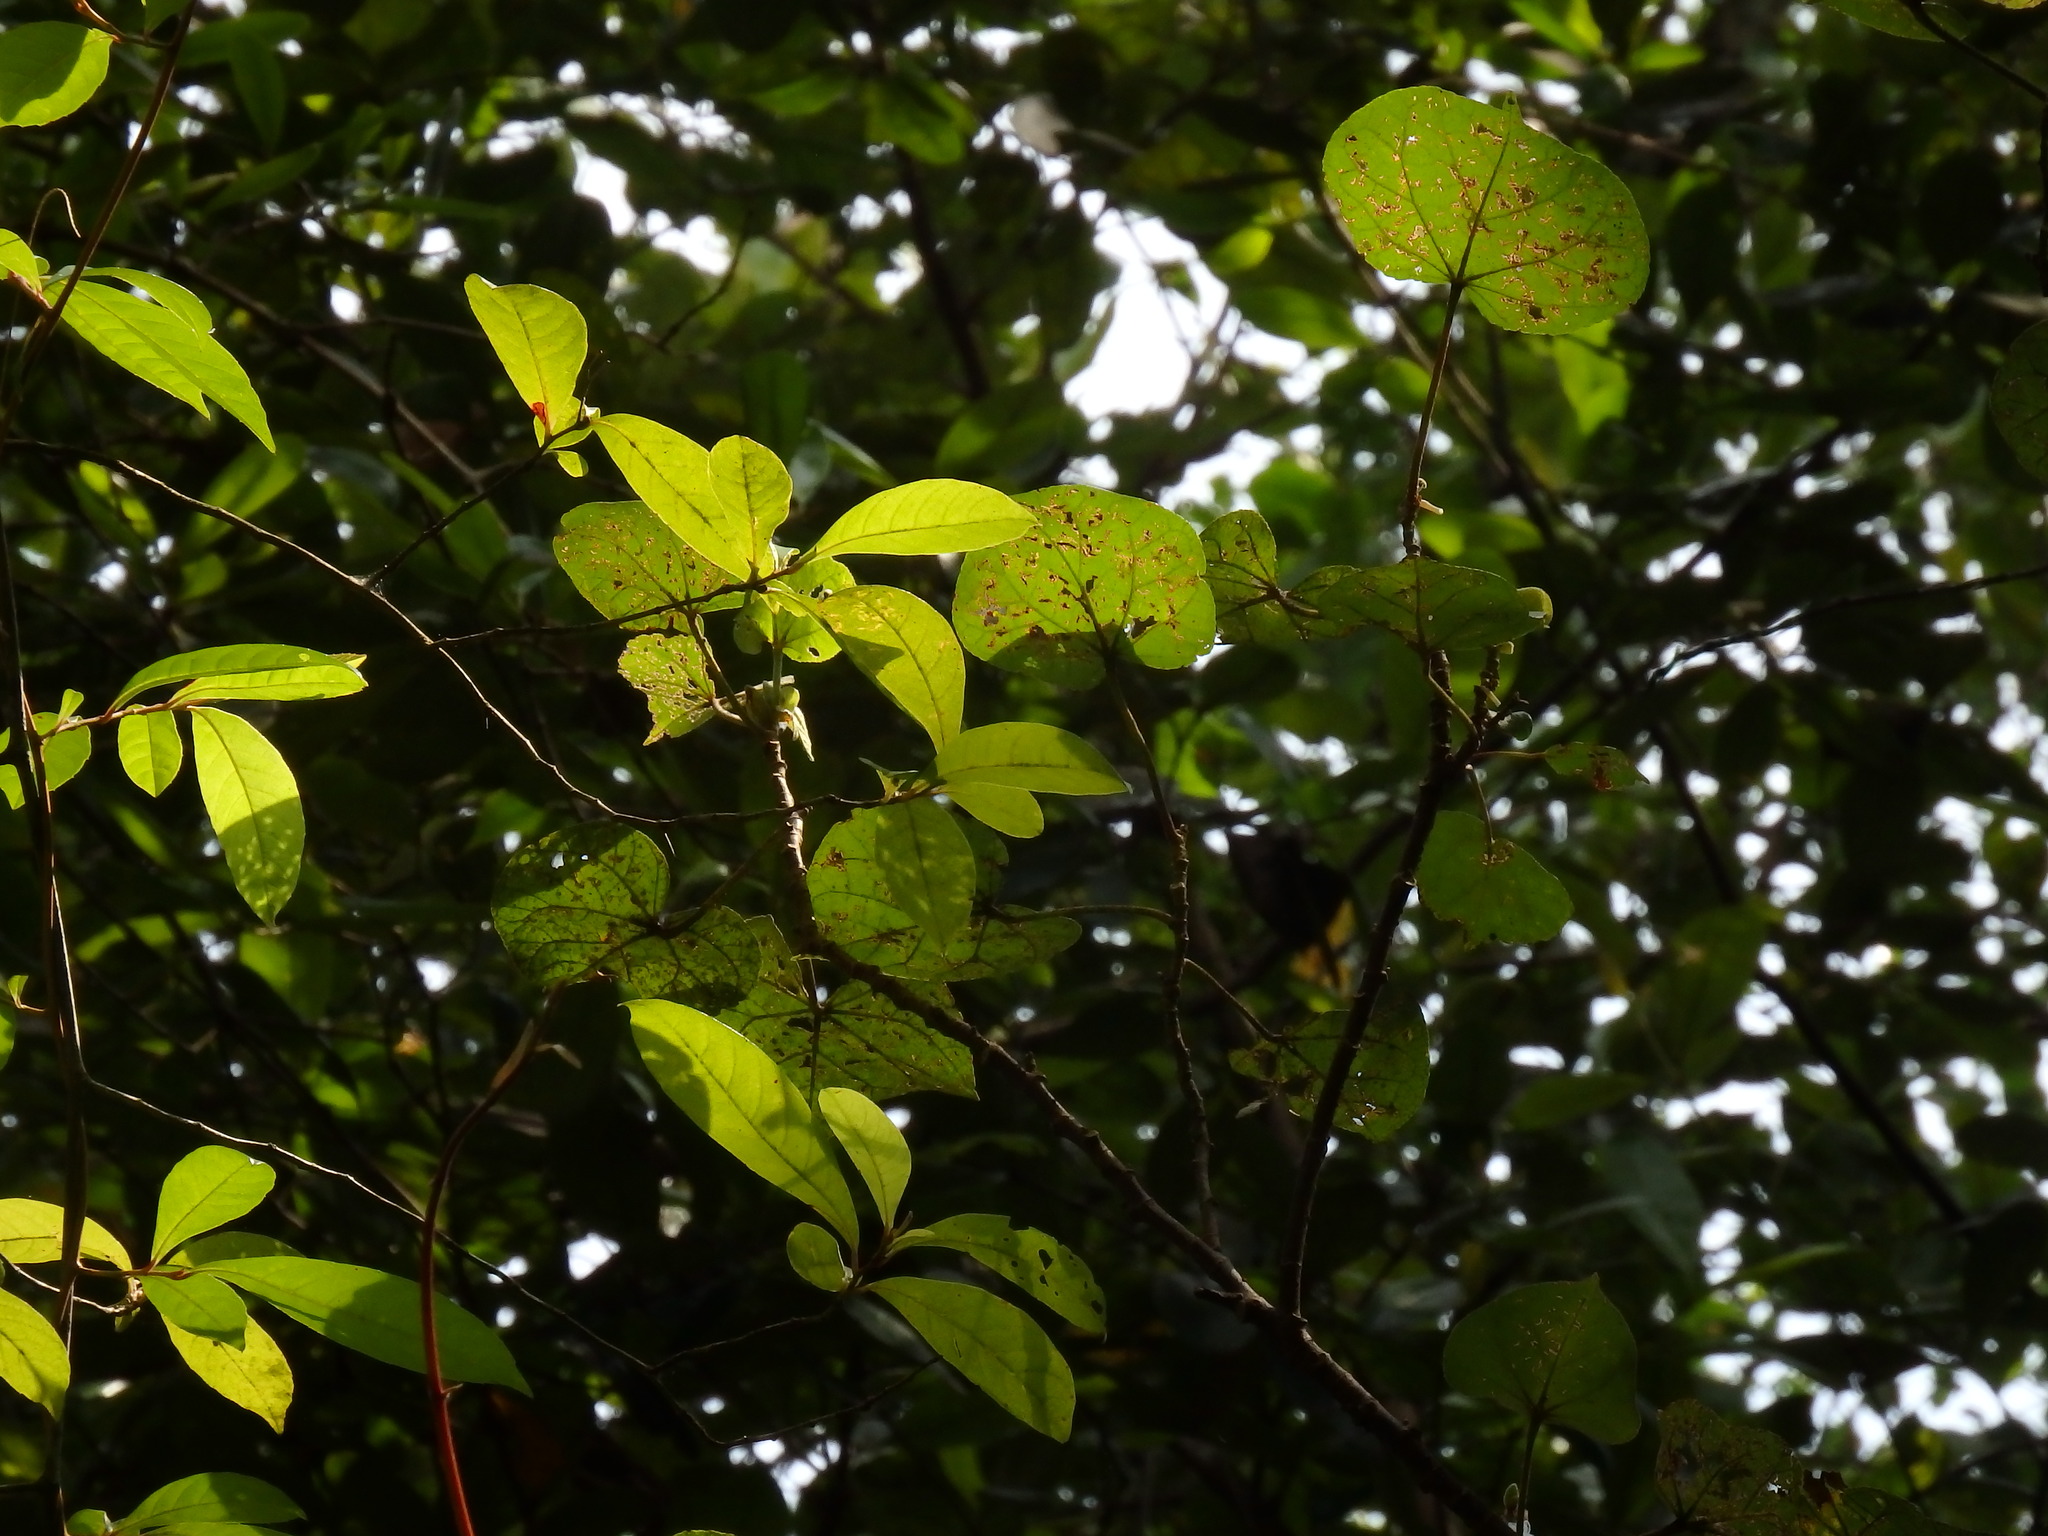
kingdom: Plantae
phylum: Tracheophyta
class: Magnoliopsida
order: Malvales
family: Malvaceae
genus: Talipariti
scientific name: Talipariti tiliaceum
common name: Sea hibiscus
